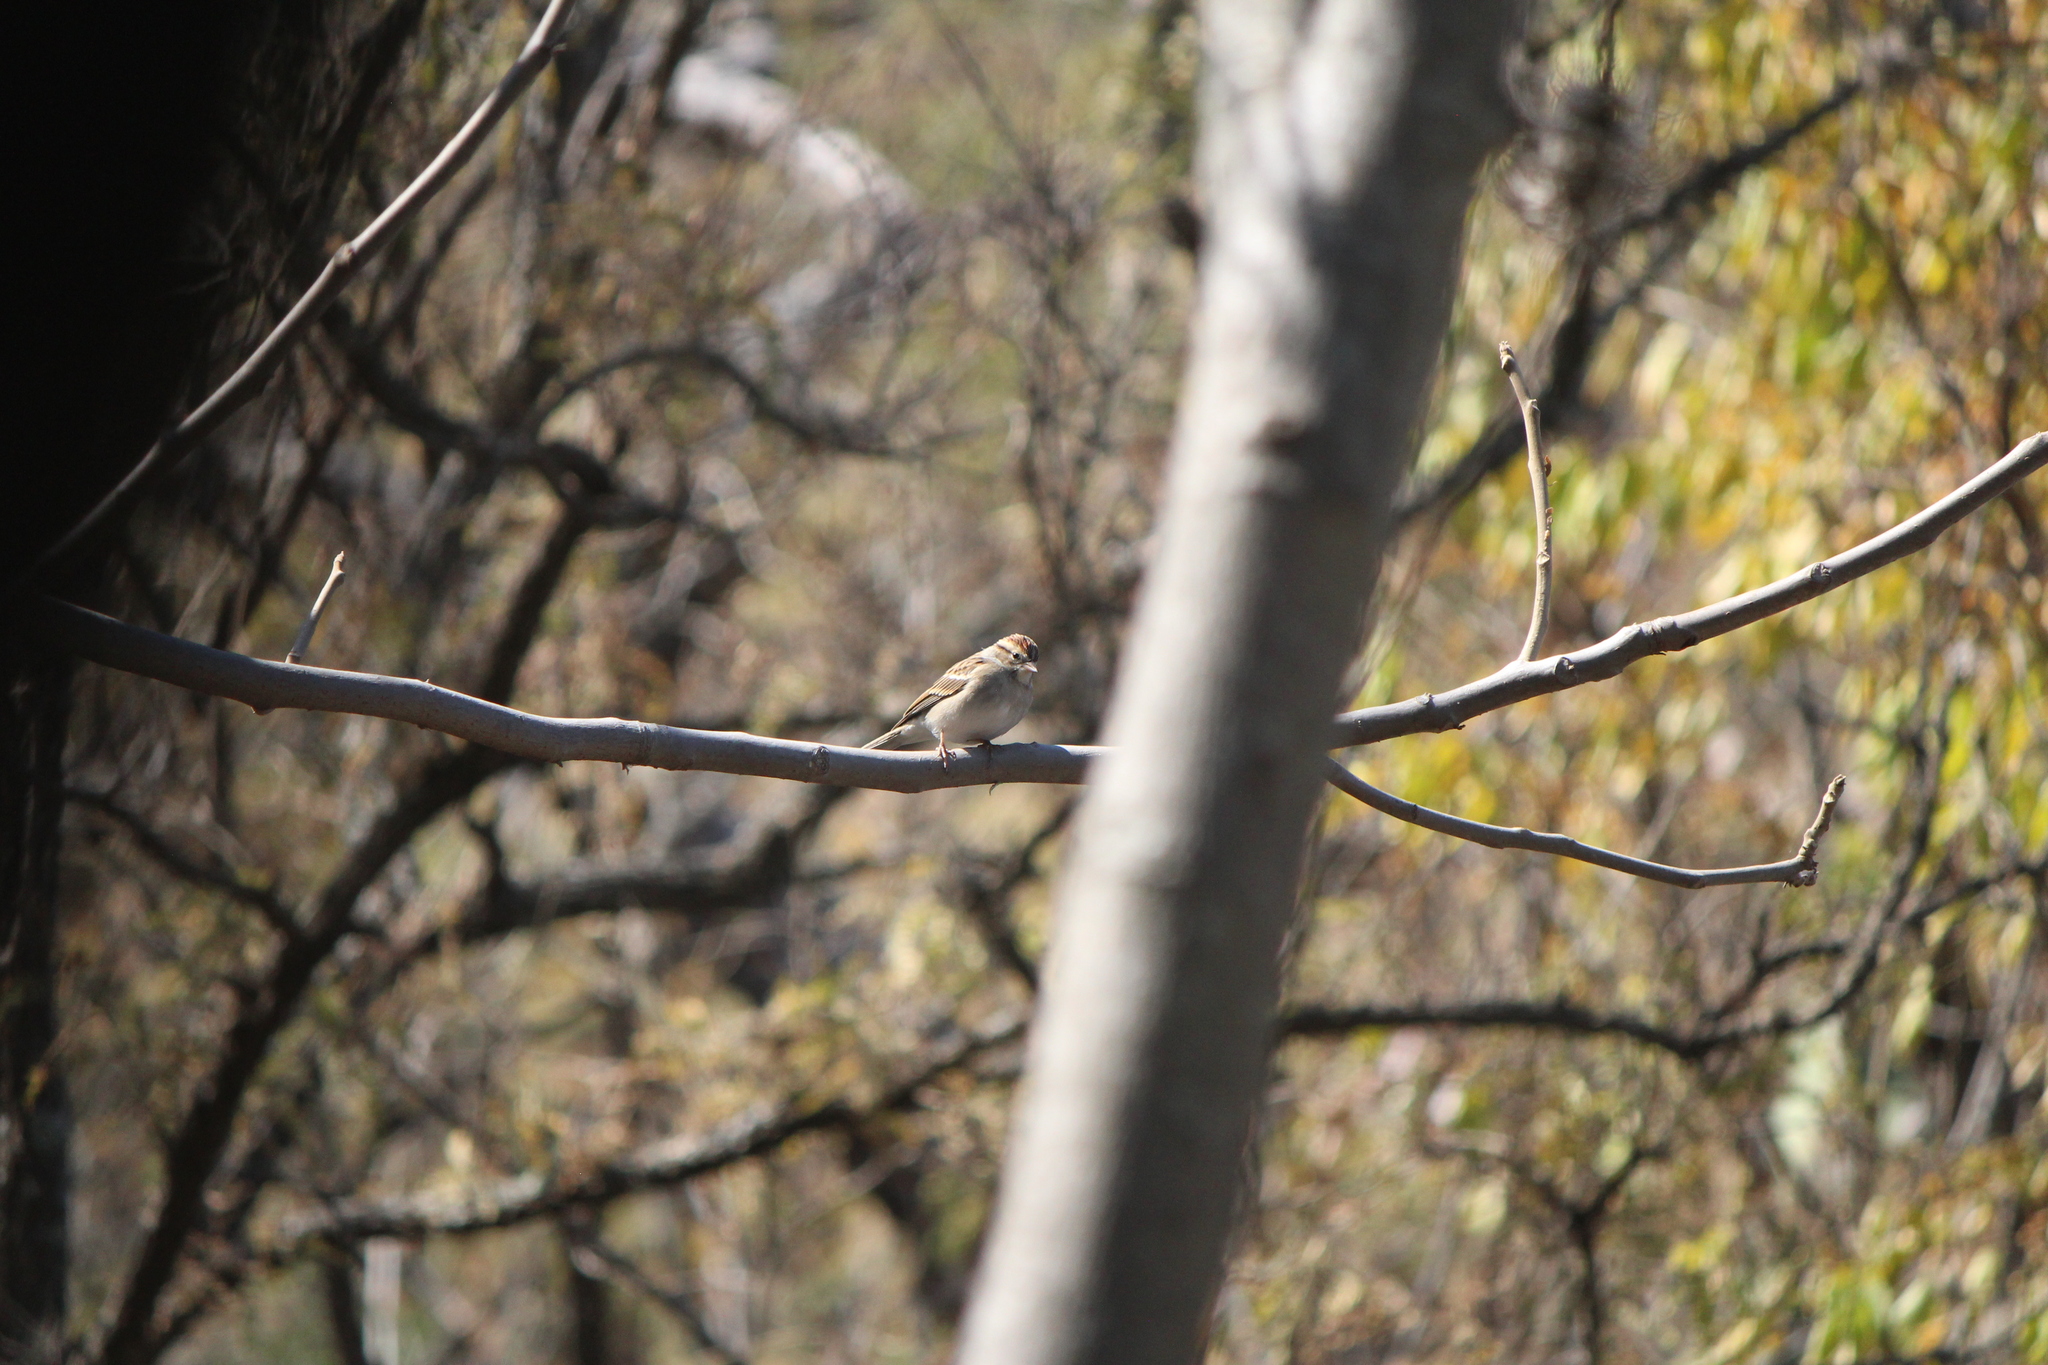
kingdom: Animalia
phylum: Chordata
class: Aves
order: Passeriformes
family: Passerellidae
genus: Spizella
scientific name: Spizella passerina
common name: Chipping sparrow
